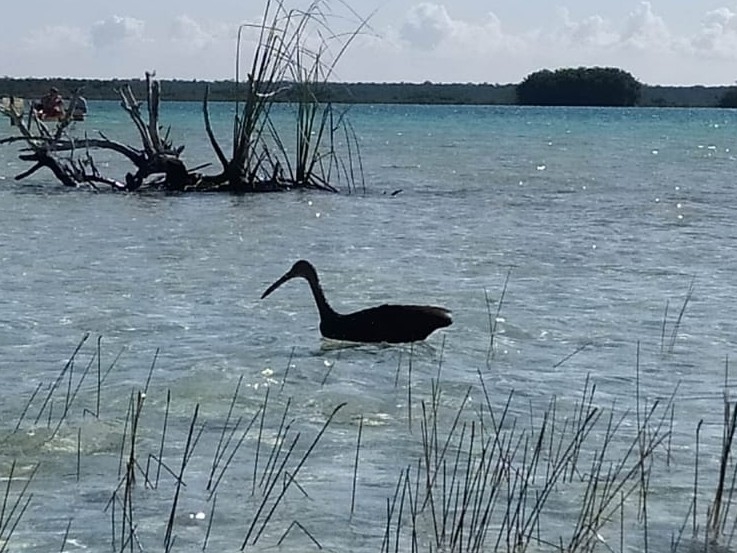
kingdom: Animalia
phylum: Chordata
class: Aves
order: Gruiformes
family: Aramidae
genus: Aramus
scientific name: Aramus guarauna
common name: Limpkin
